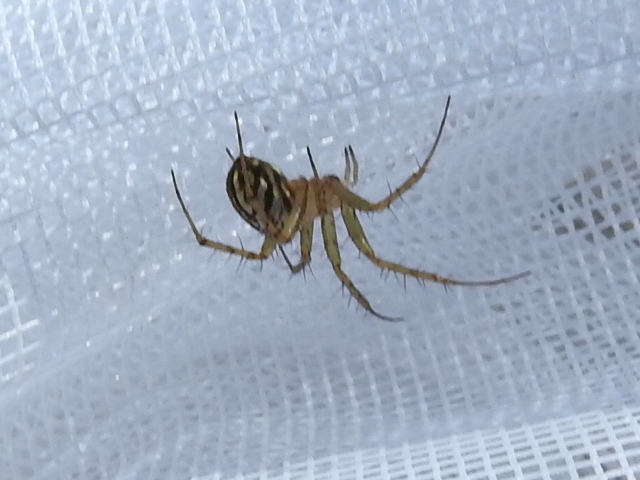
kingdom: Animalia
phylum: Arthropoda
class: Arachnida
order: Araneae
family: Araneidae
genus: Mangora
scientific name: Mangora gibberosa
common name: Lined orbweaver
